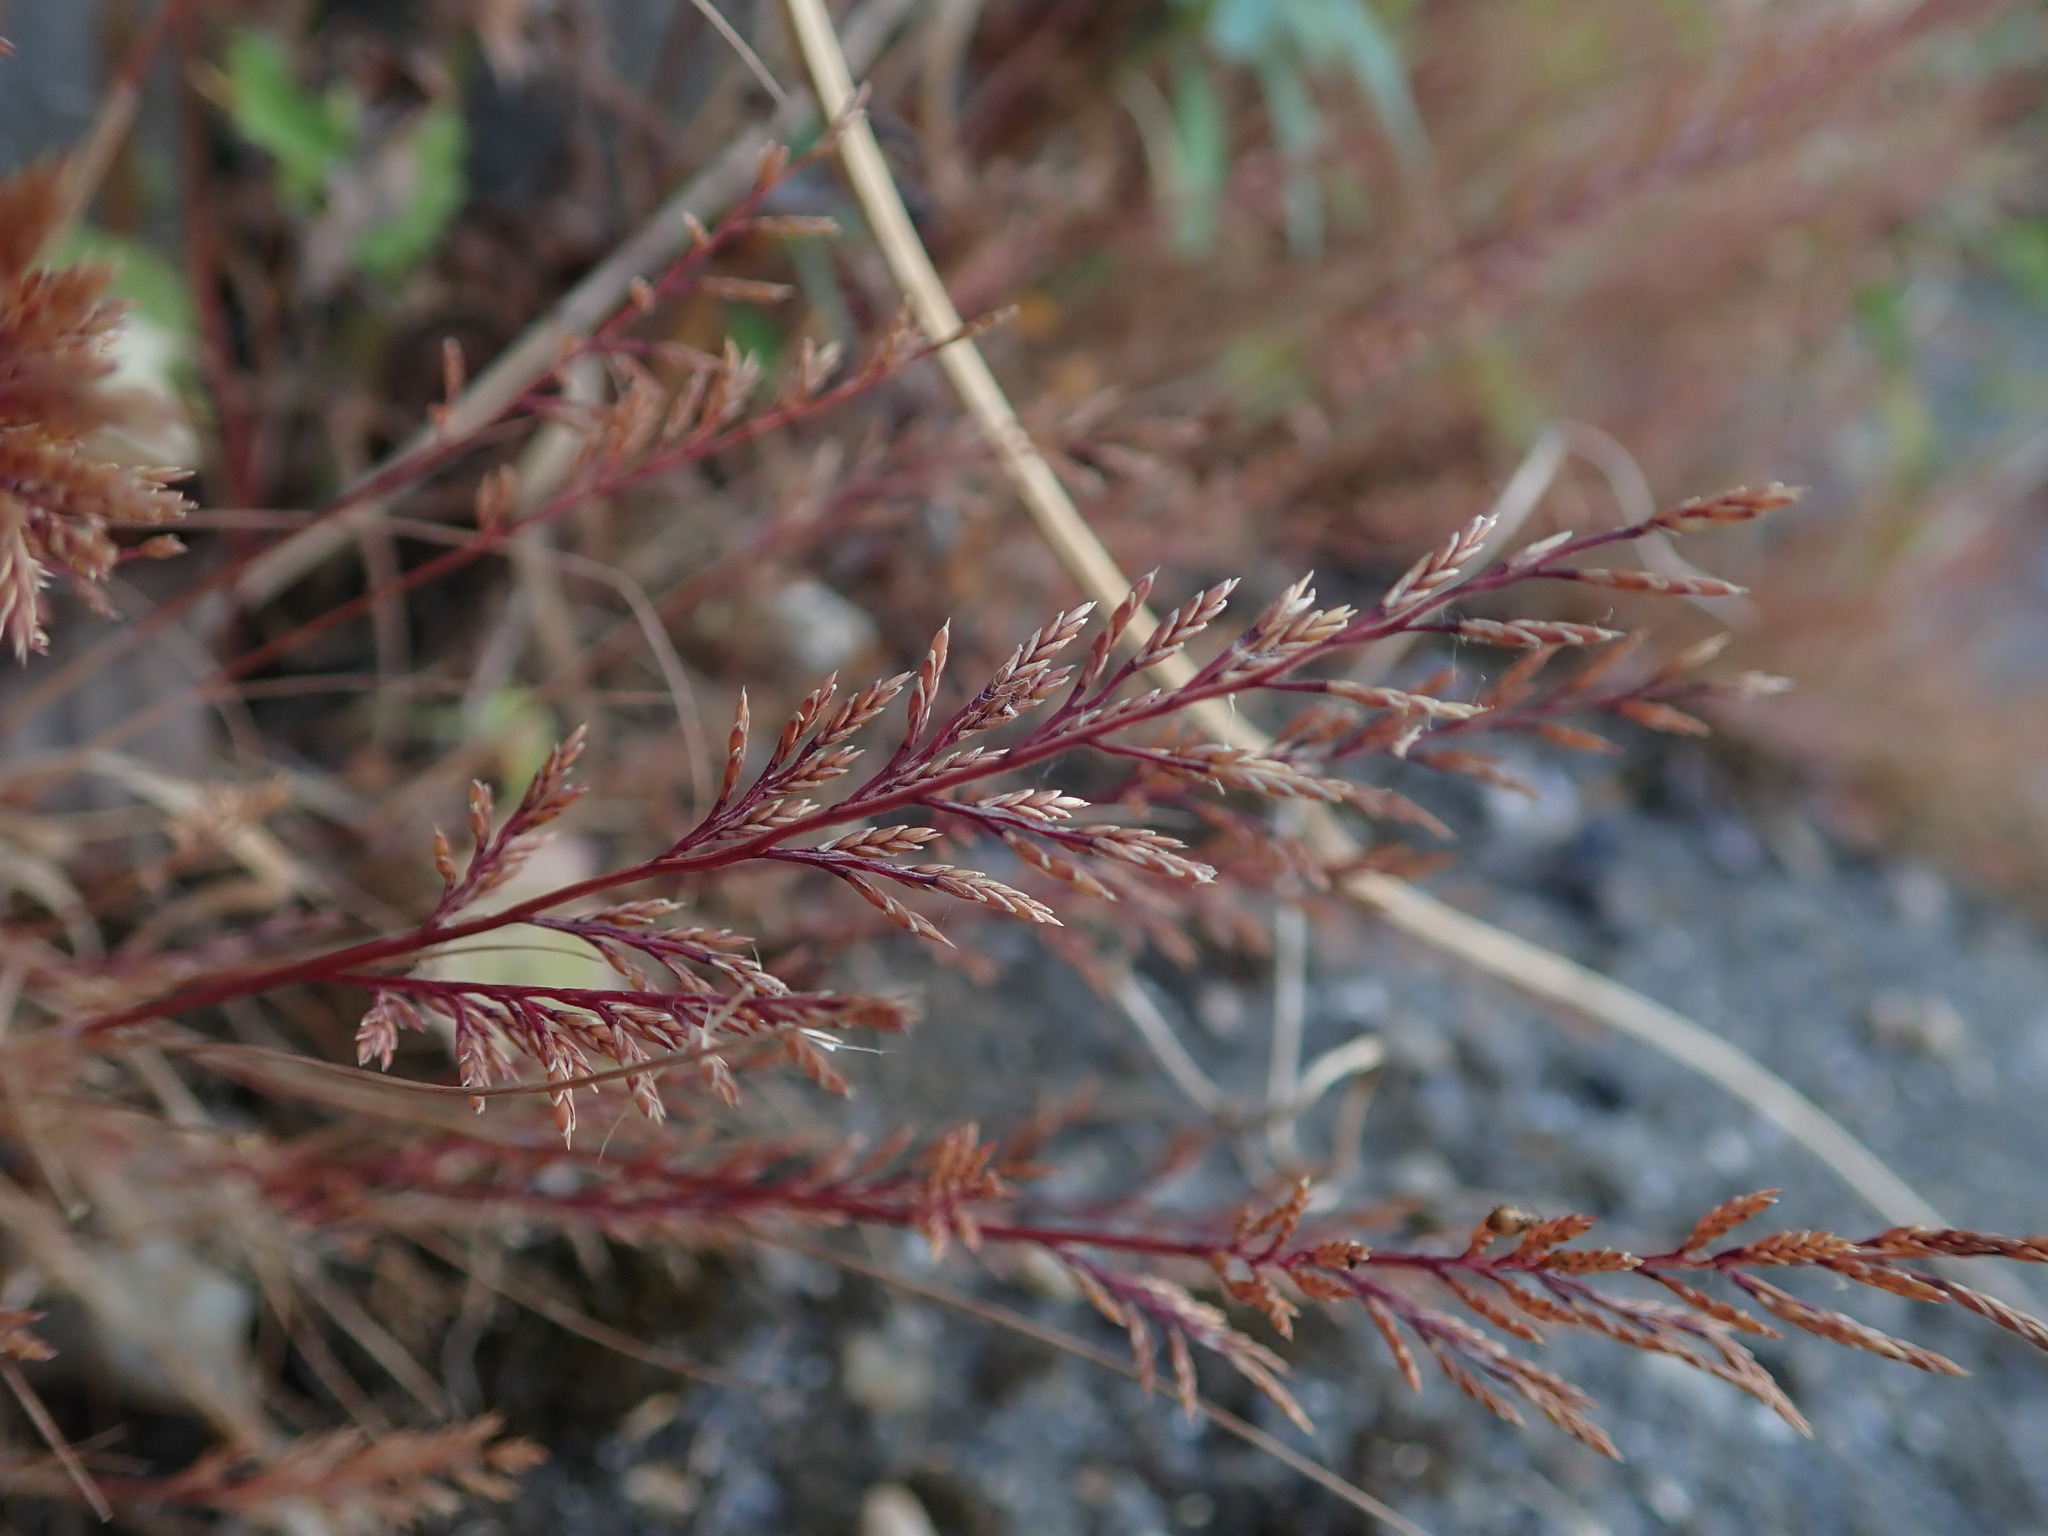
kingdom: Plantae
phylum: Tracheophyta
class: Liliopsida
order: Poales
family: Poaceae
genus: Catapodium
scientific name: Catapodium rigidum
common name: Fern-grass
